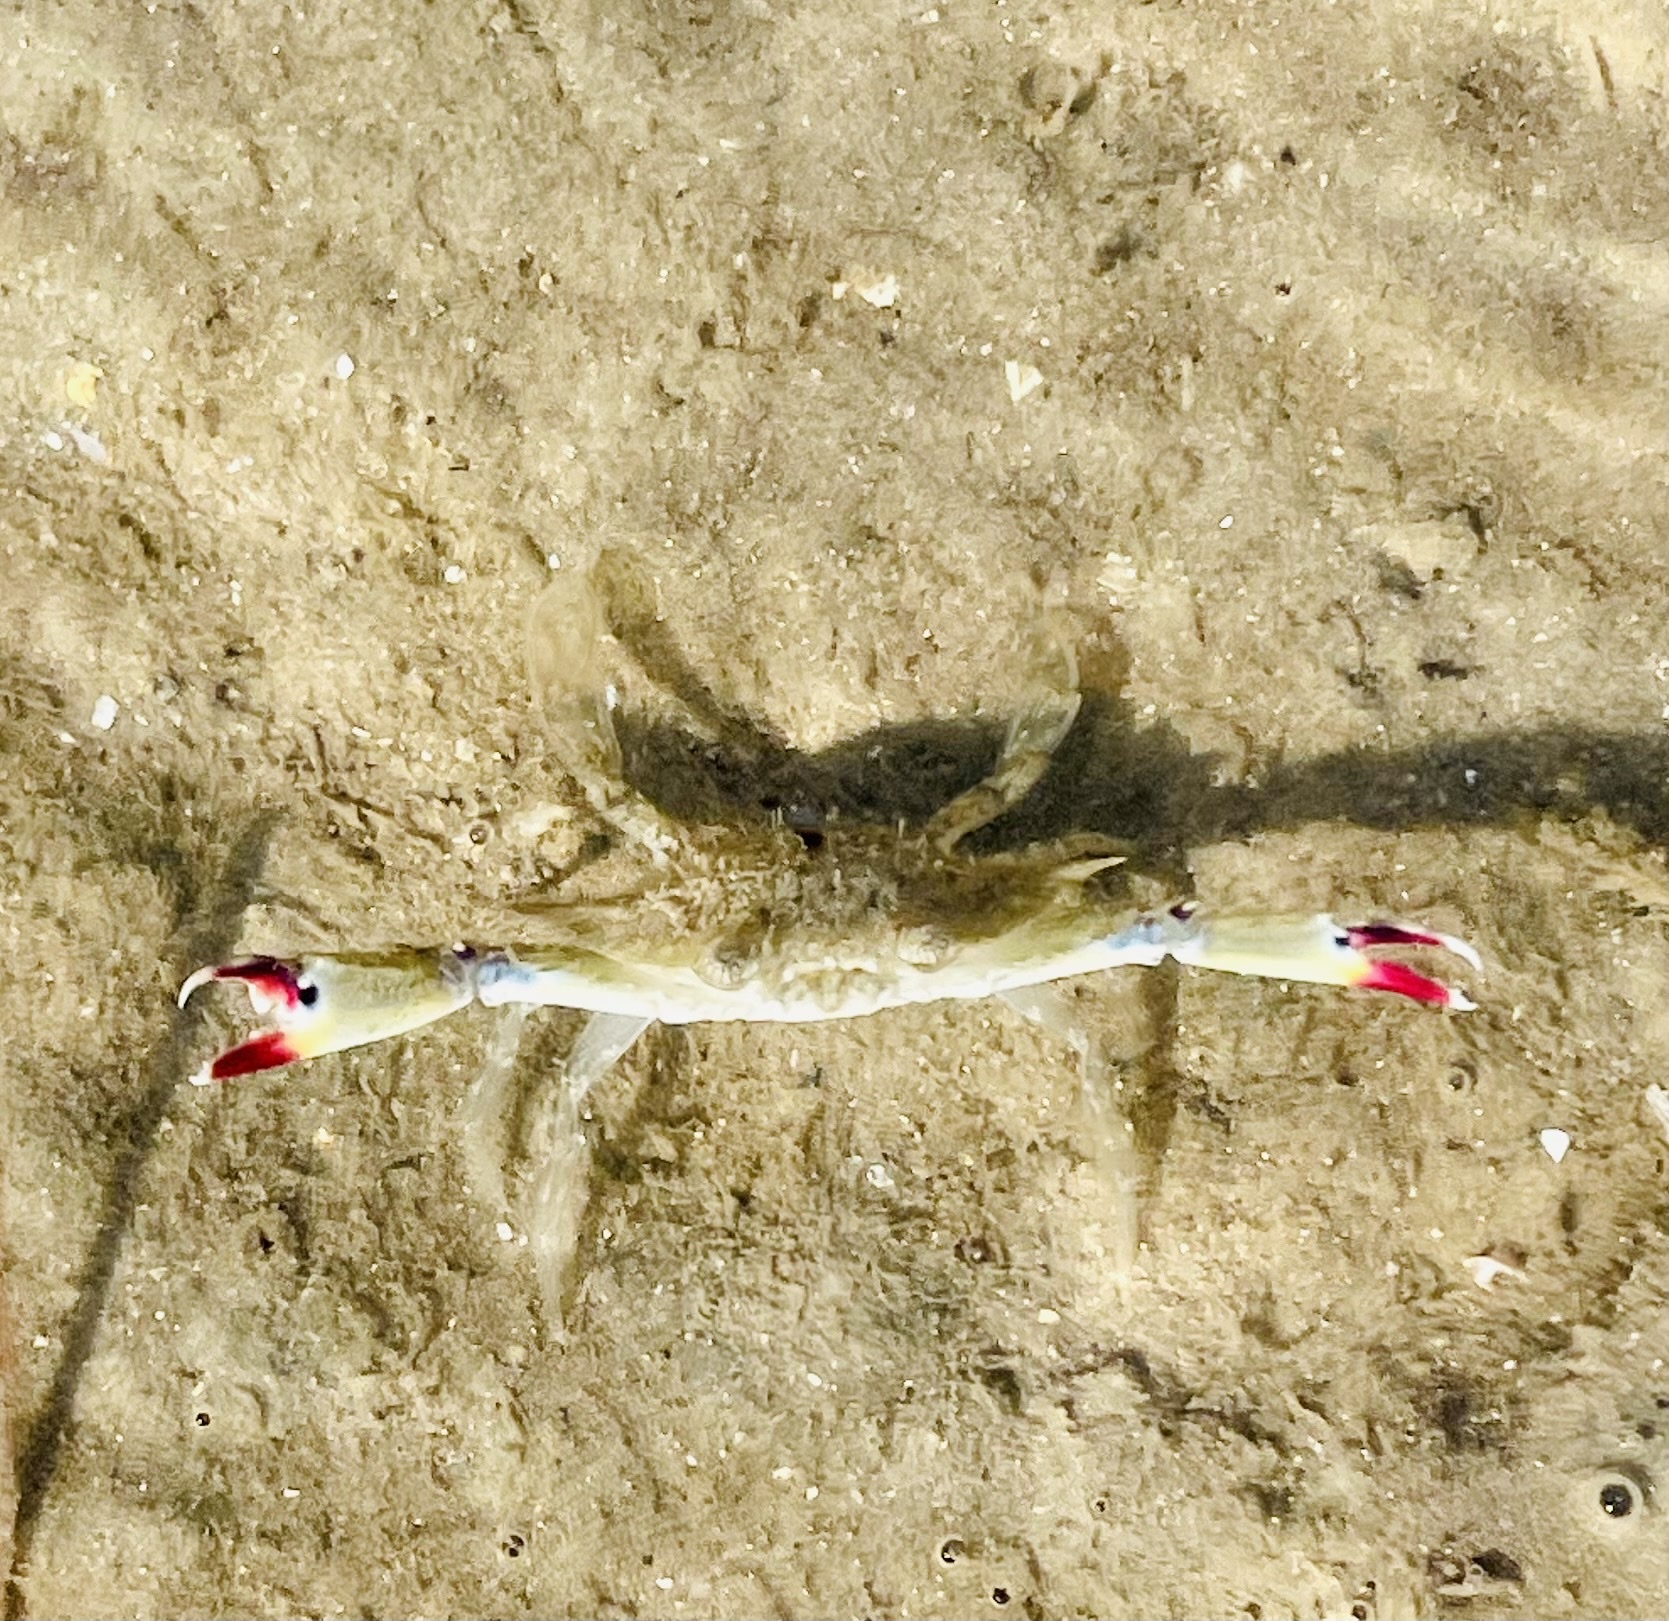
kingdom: Animalia
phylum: Arthropoda
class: Malacostraca
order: Decapoda
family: Portunidae
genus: Portunus
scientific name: Portunus armatus
